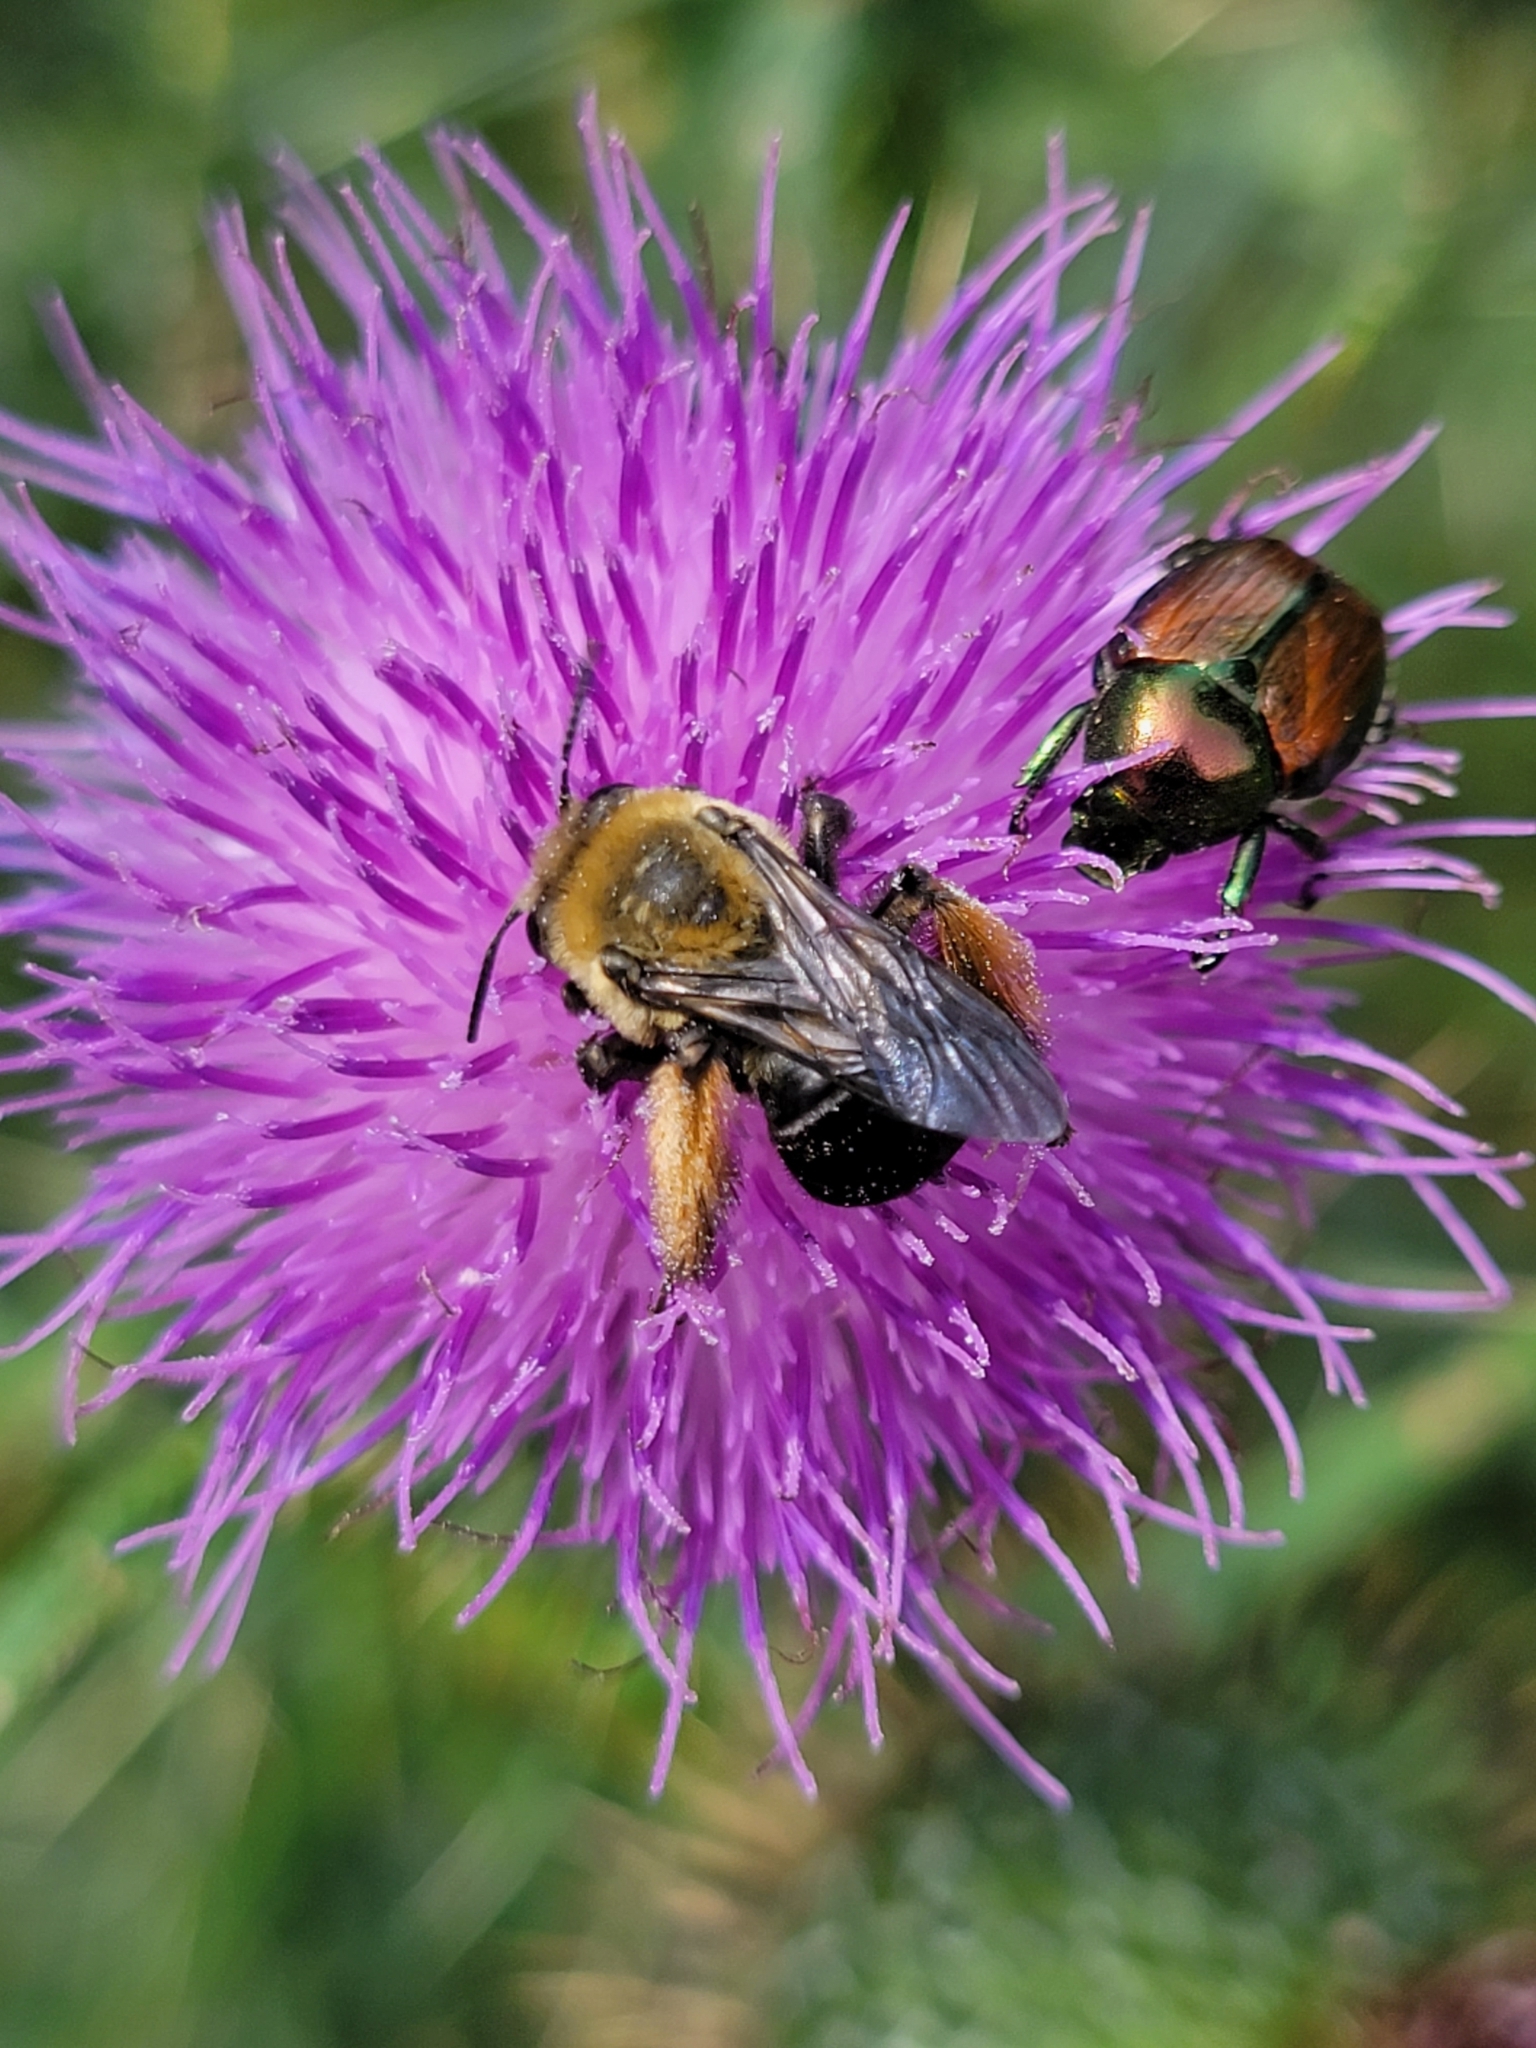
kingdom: Animalia
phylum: Arthropoda
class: Insecta
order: Hymenoptera
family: Apidae
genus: Melissodes
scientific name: Melissodes desponsus
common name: Thistle long-horned bee
